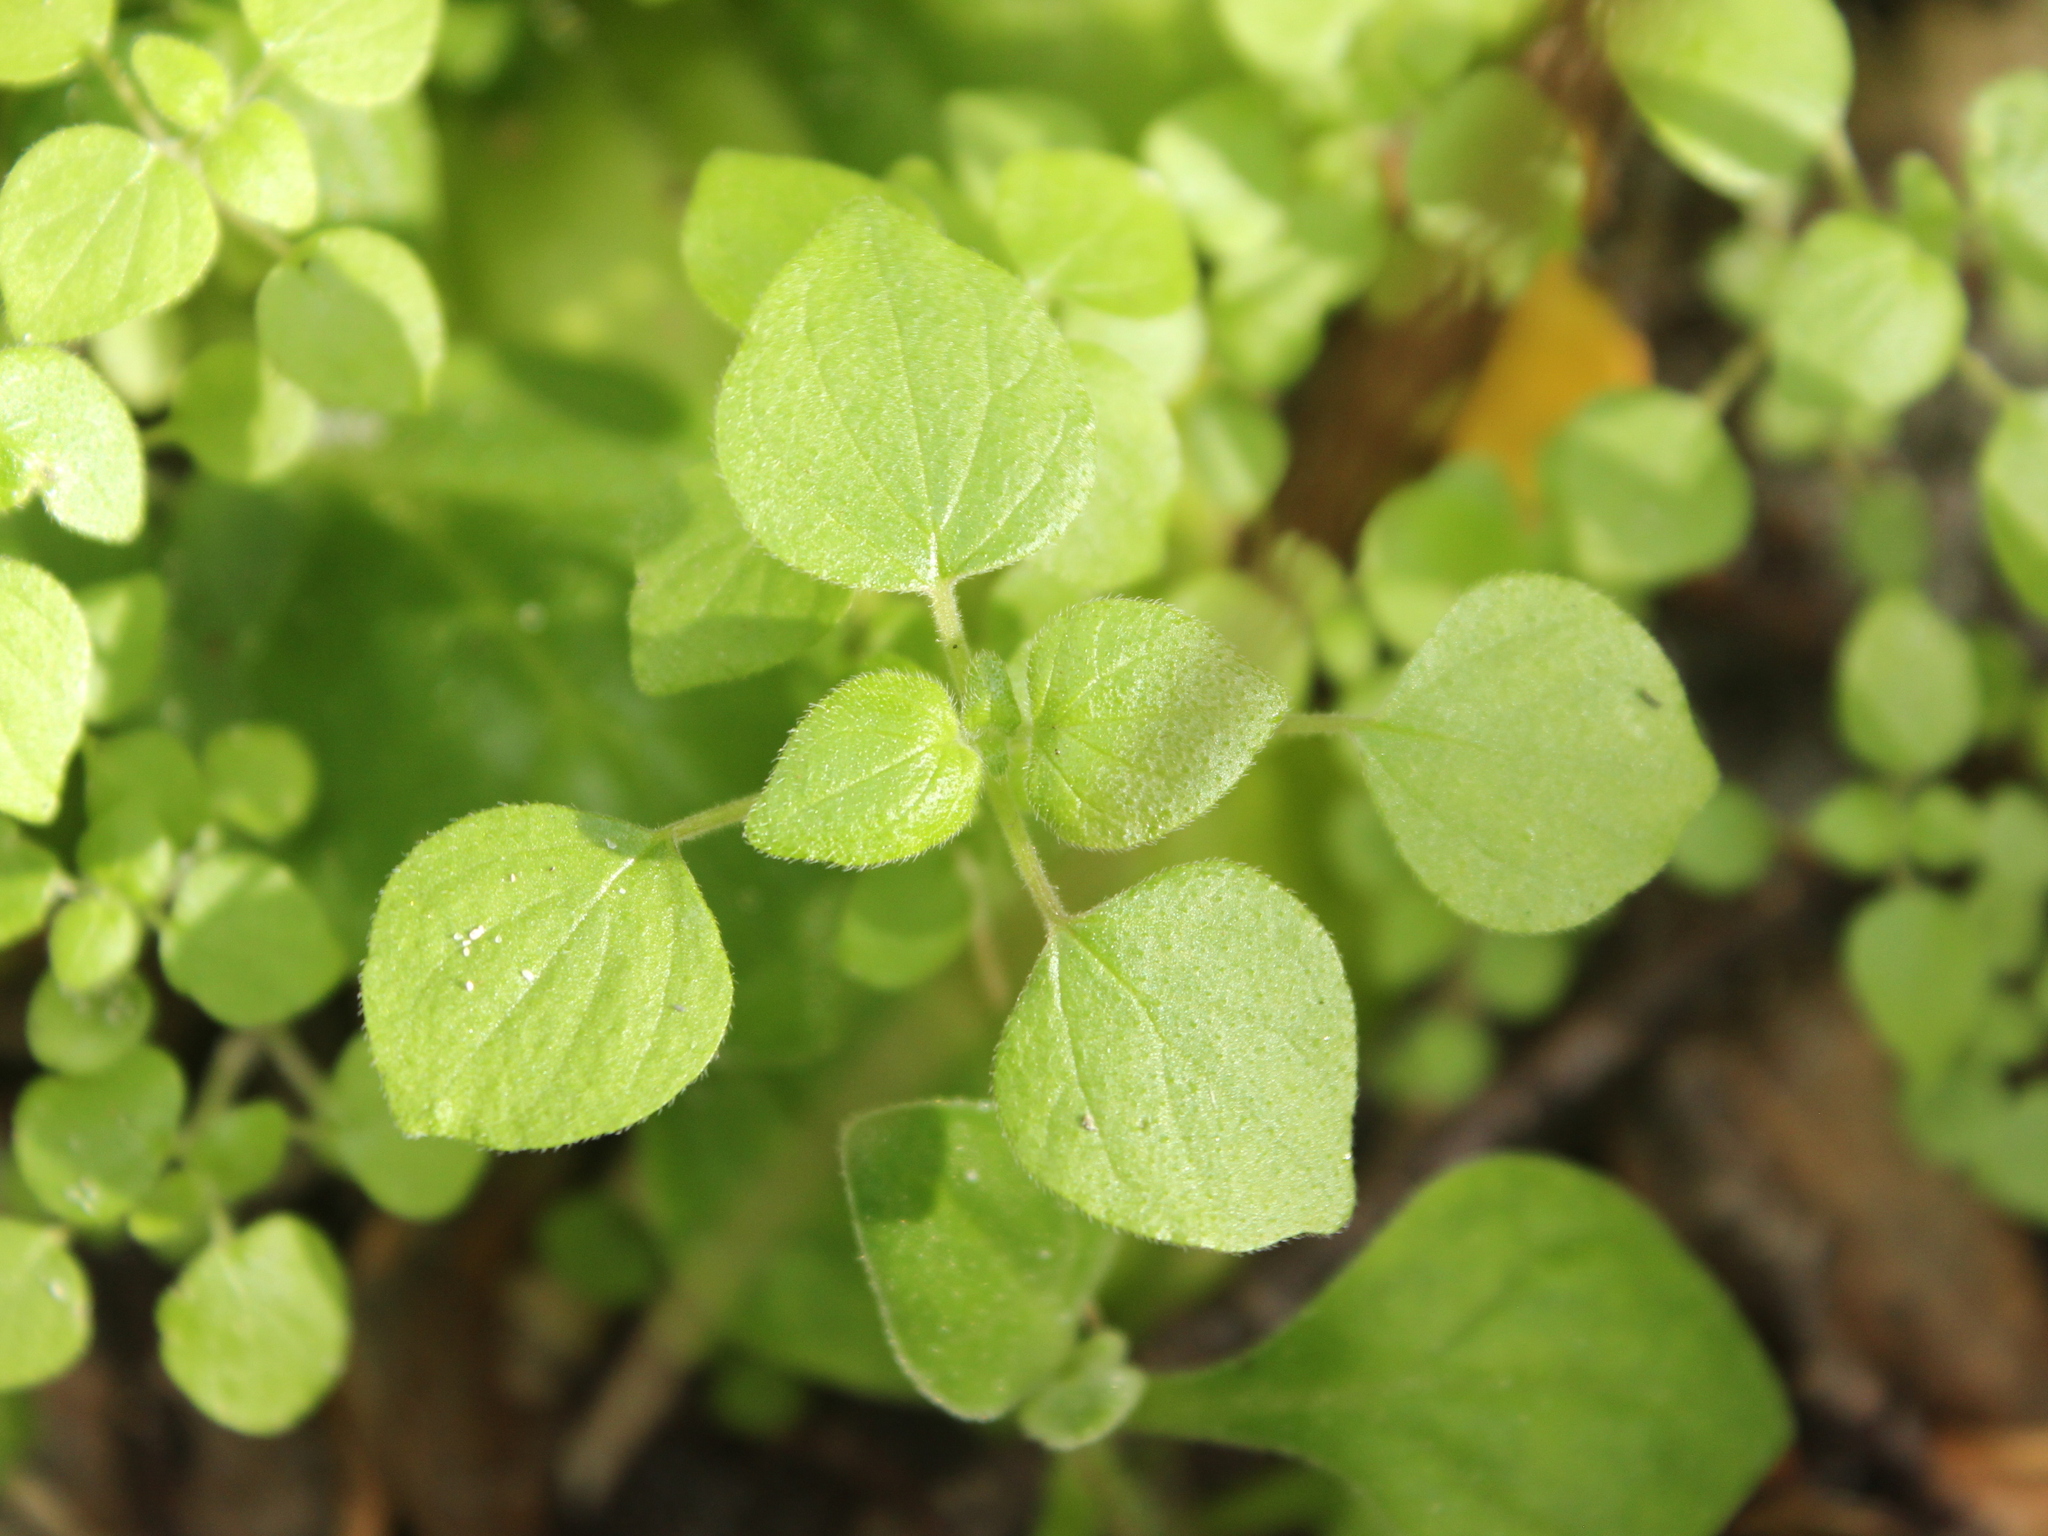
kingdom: Plantae
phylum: Tracheophyta
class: Magnoliopsida
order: Rosales
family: Urticaceae
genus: Parietaria
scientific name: Parietaria debilis
